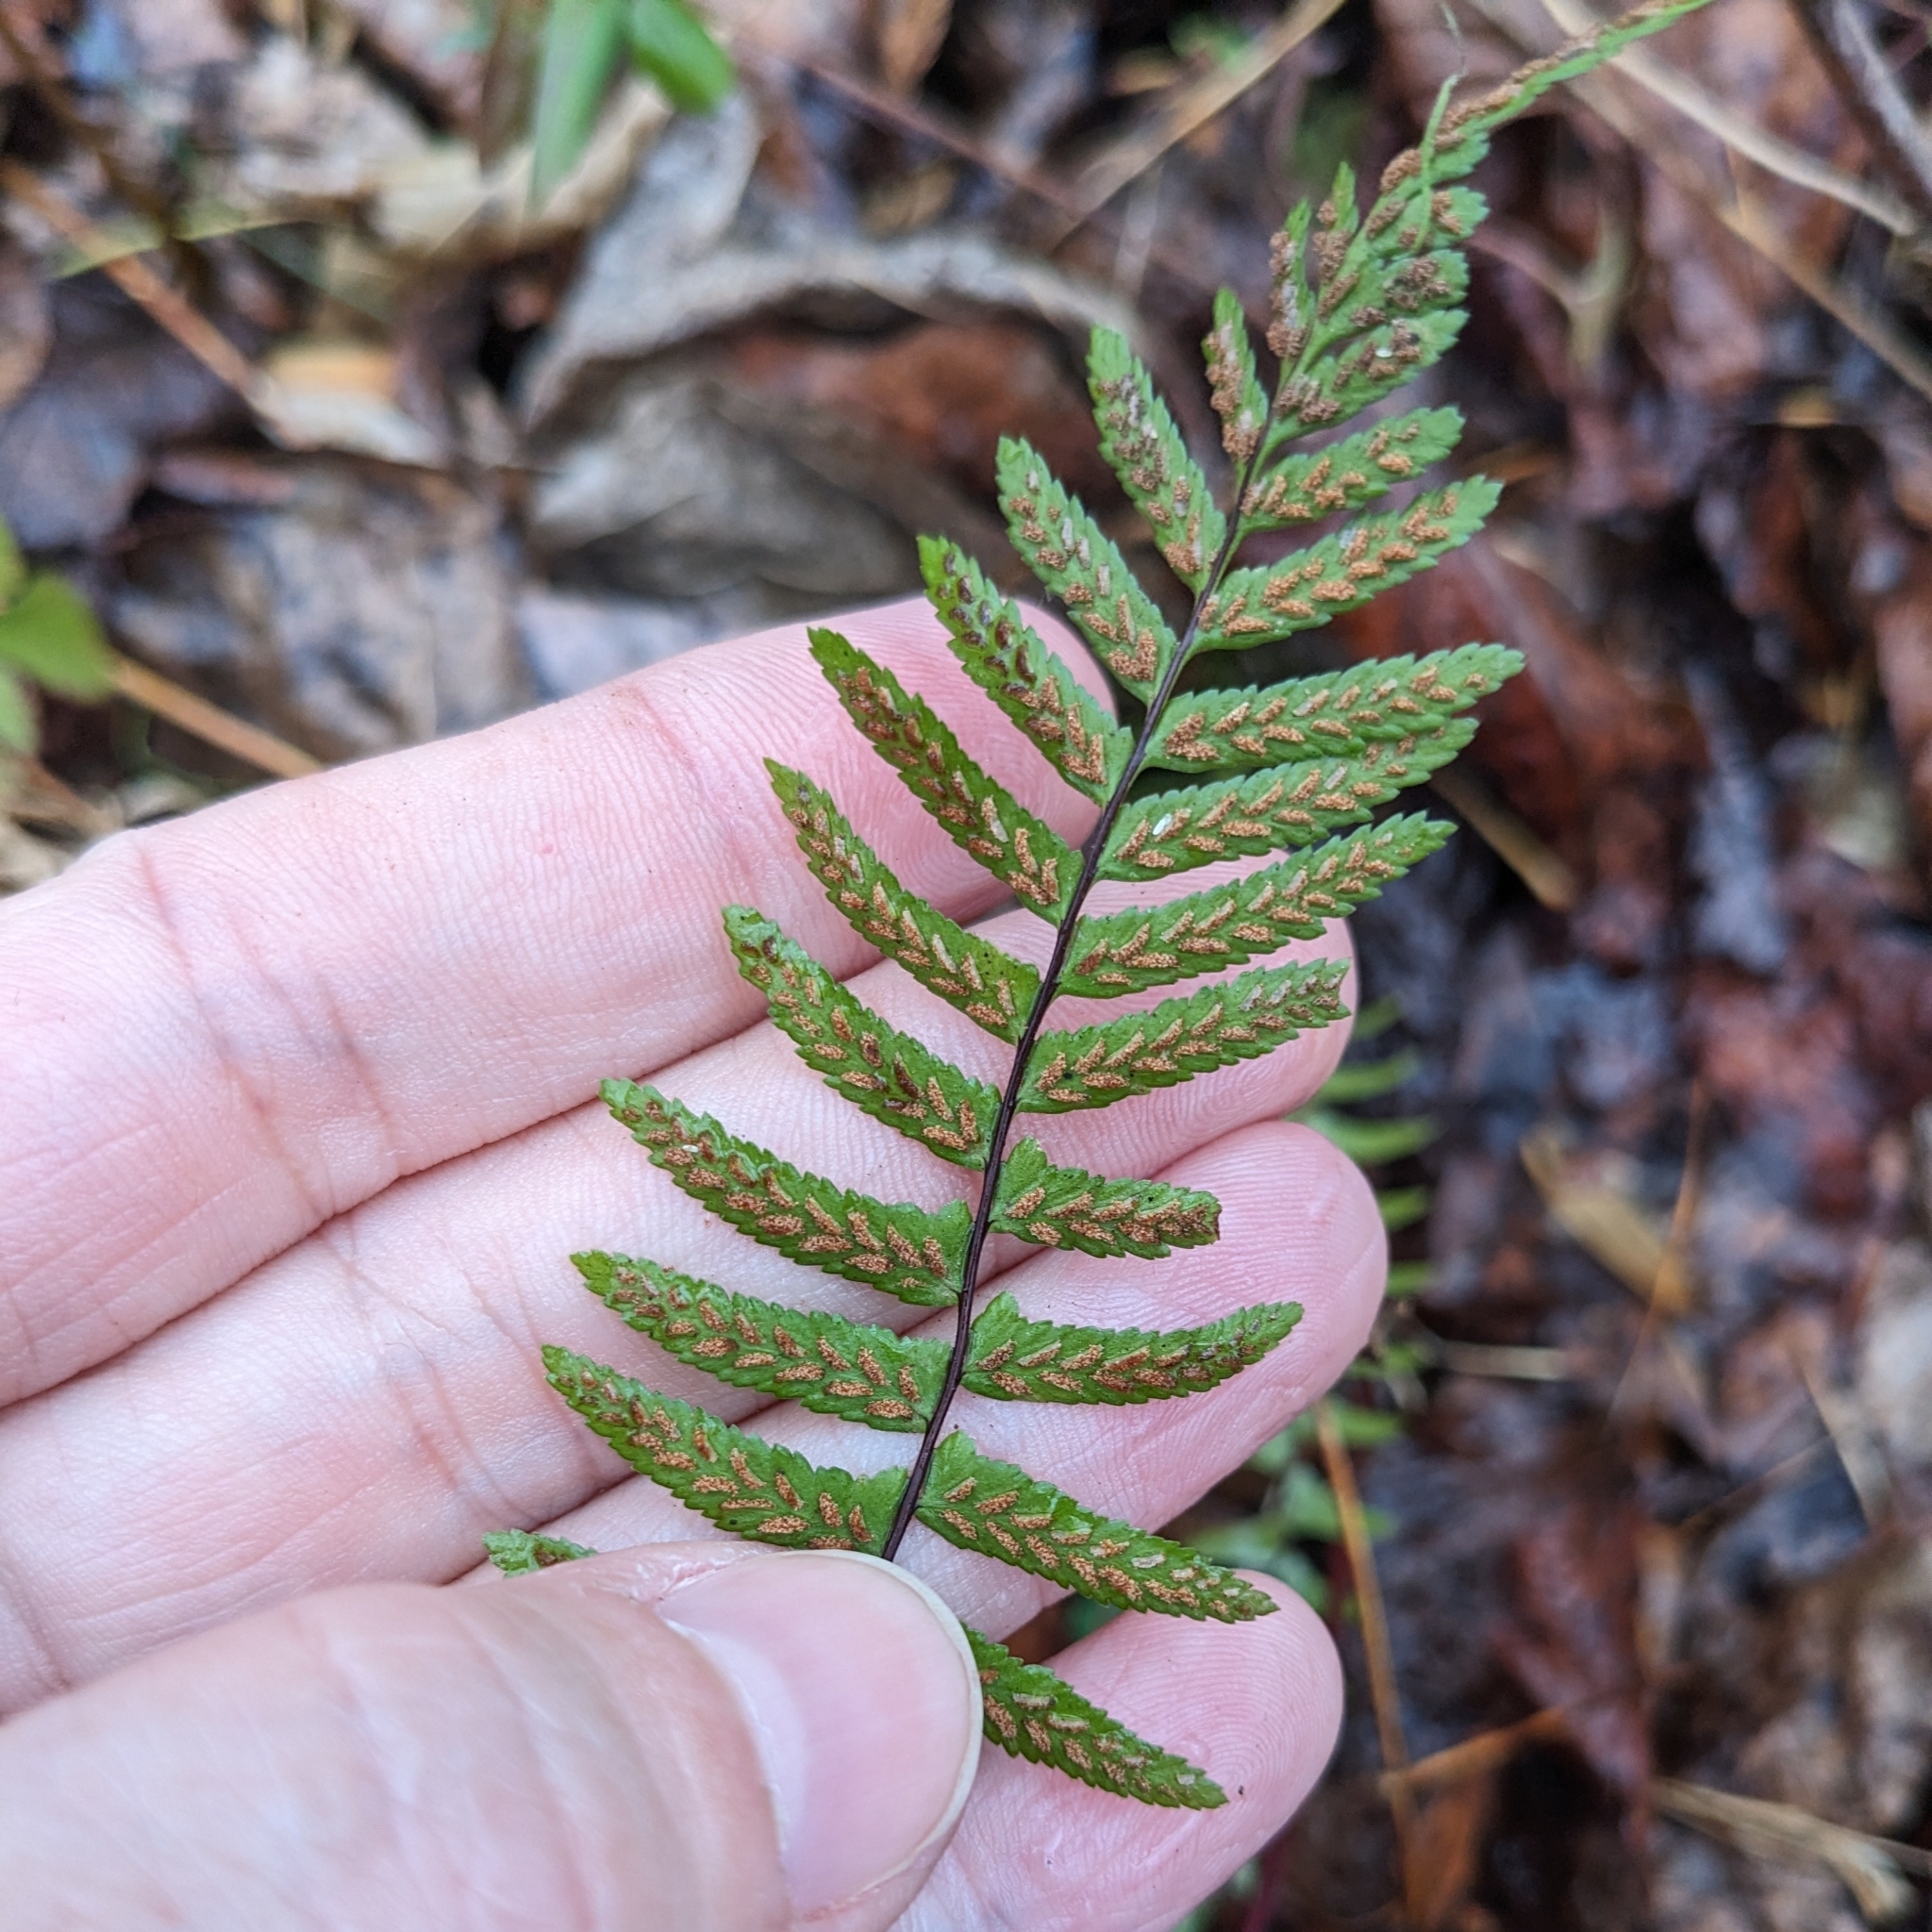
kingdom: Plantae
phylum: Tracheophyta
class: Polypodiopsida
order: Polypodiales
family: Aspleniaceae
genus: Asplenium
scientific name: Asplenium platyneuron
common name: Ebony spleenwort
